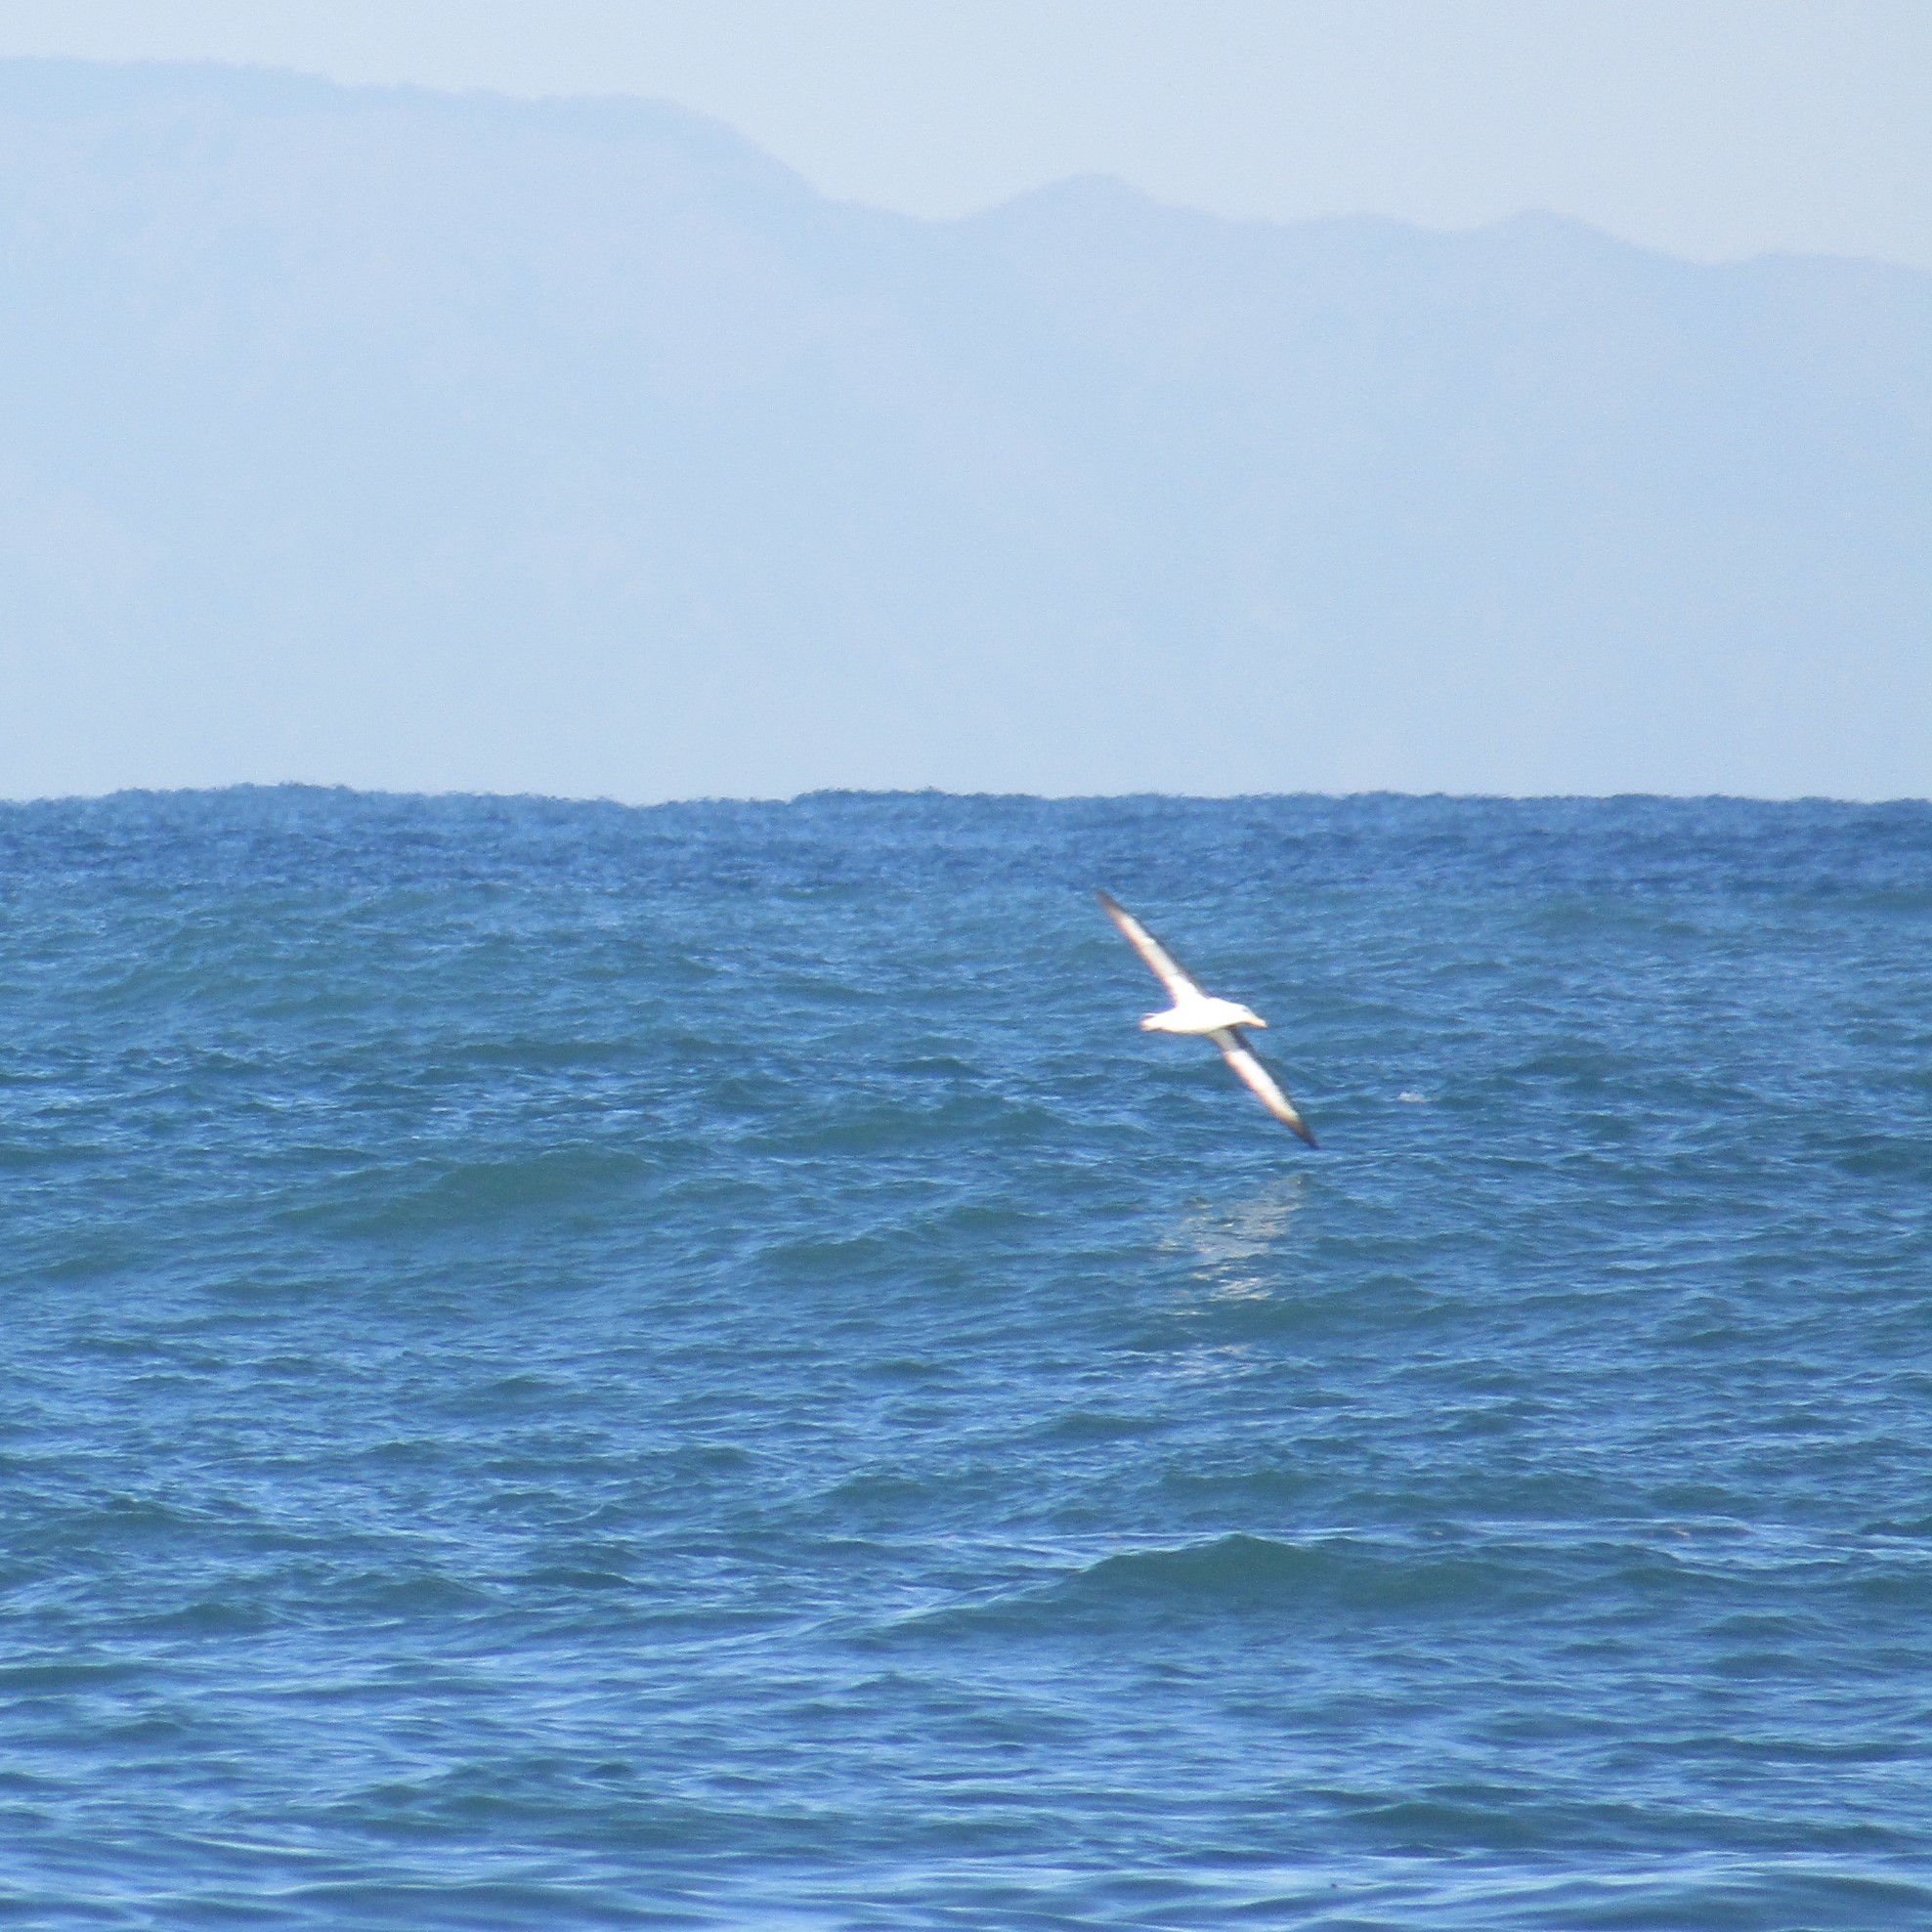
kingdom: Animalia
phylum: Chordata
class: Aves
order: Procellariiformes
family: Diomedeidae
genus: Thalassarche
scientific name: Thalassarche melanophris
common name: Black-browed albatross
